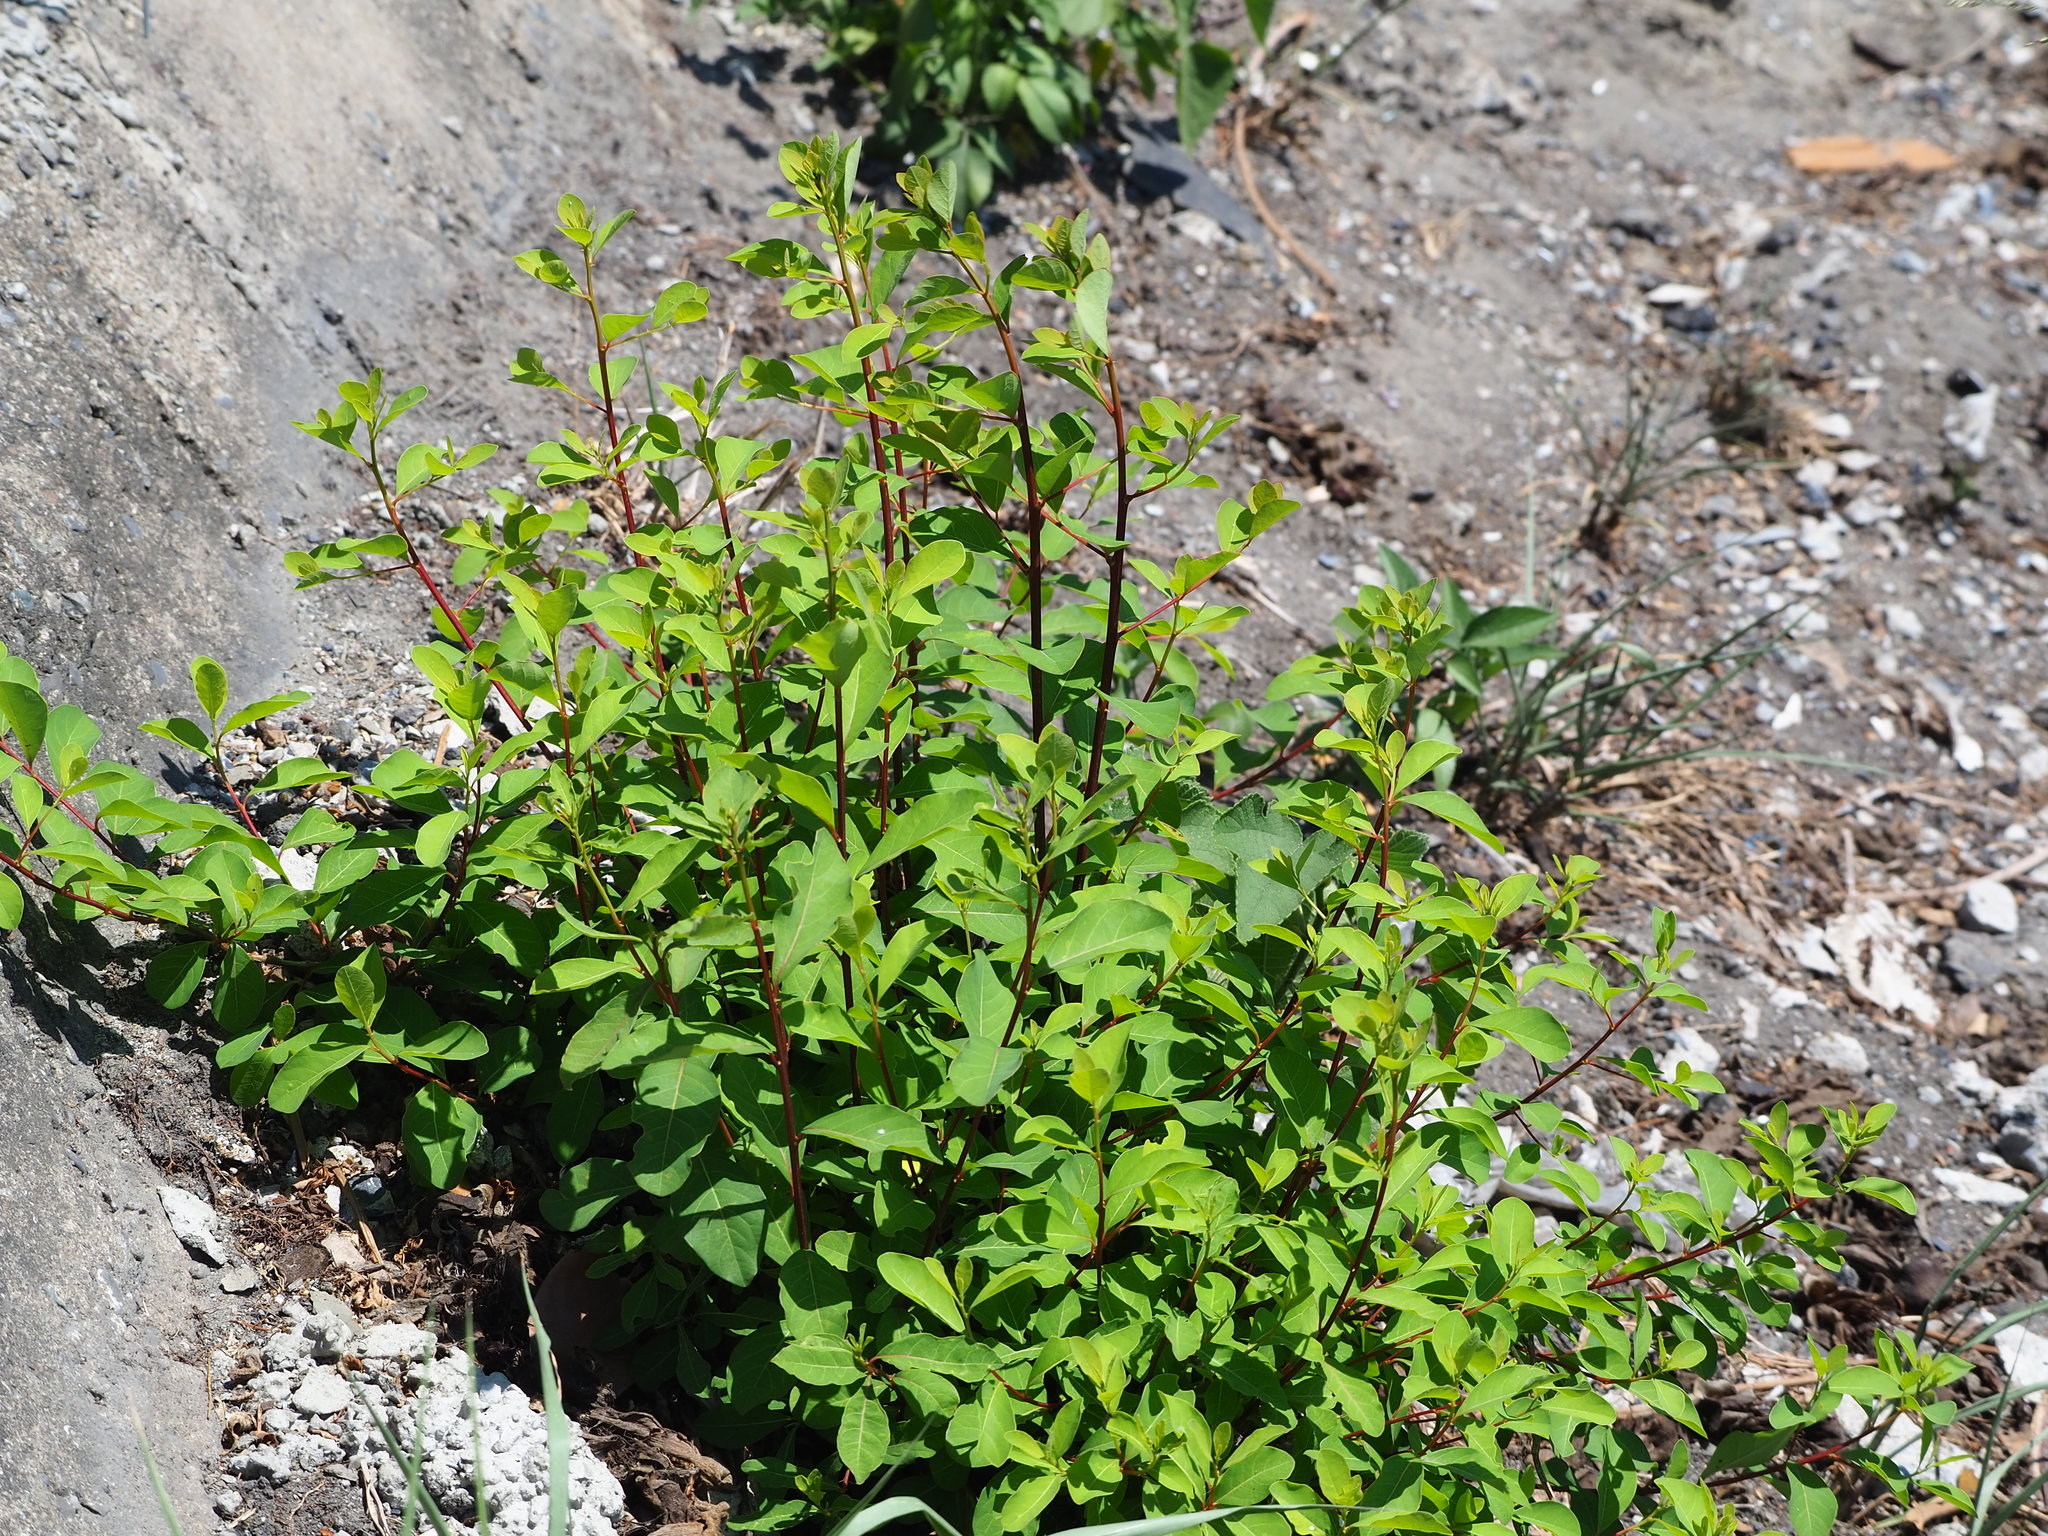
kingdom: Plantae
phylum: Tracheophyta
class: Magnoliopsida
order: Malpighiales
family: Phyllanthaceae
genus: Flueggea
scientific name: Flueggea virosa
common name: Common bushweed
